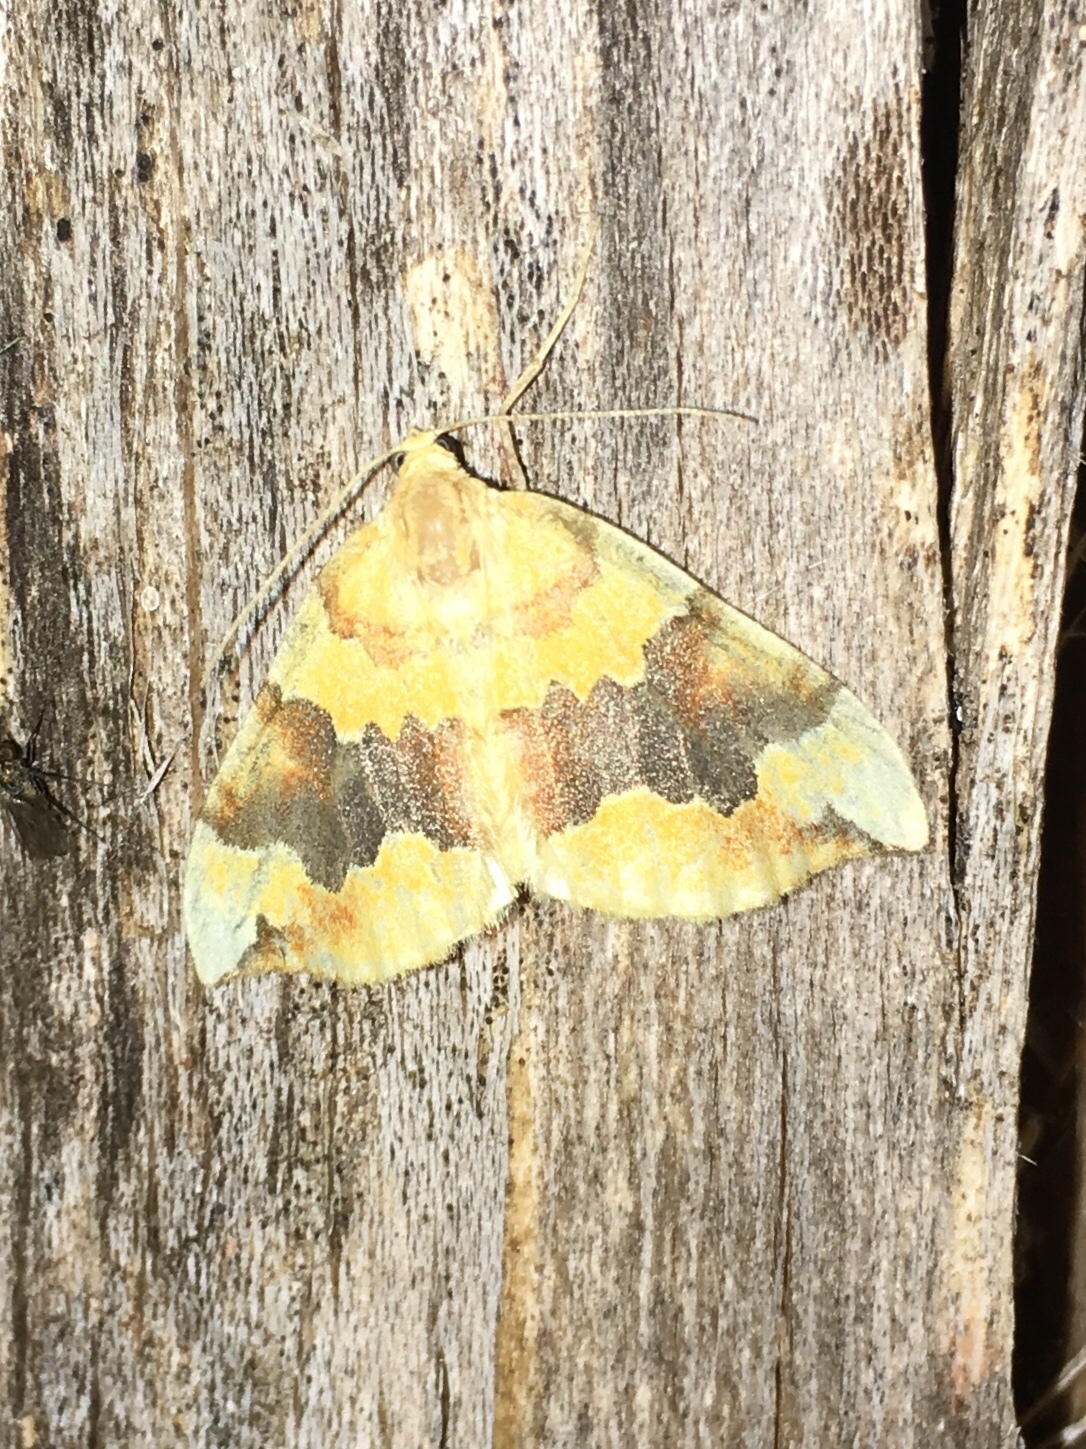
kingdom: Animalia
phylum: Arthropoda
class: Insecta
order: Lepidoptera
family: Geometridae
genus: Cidaria
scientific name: Cidaria fulvata
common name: Barred yellow
